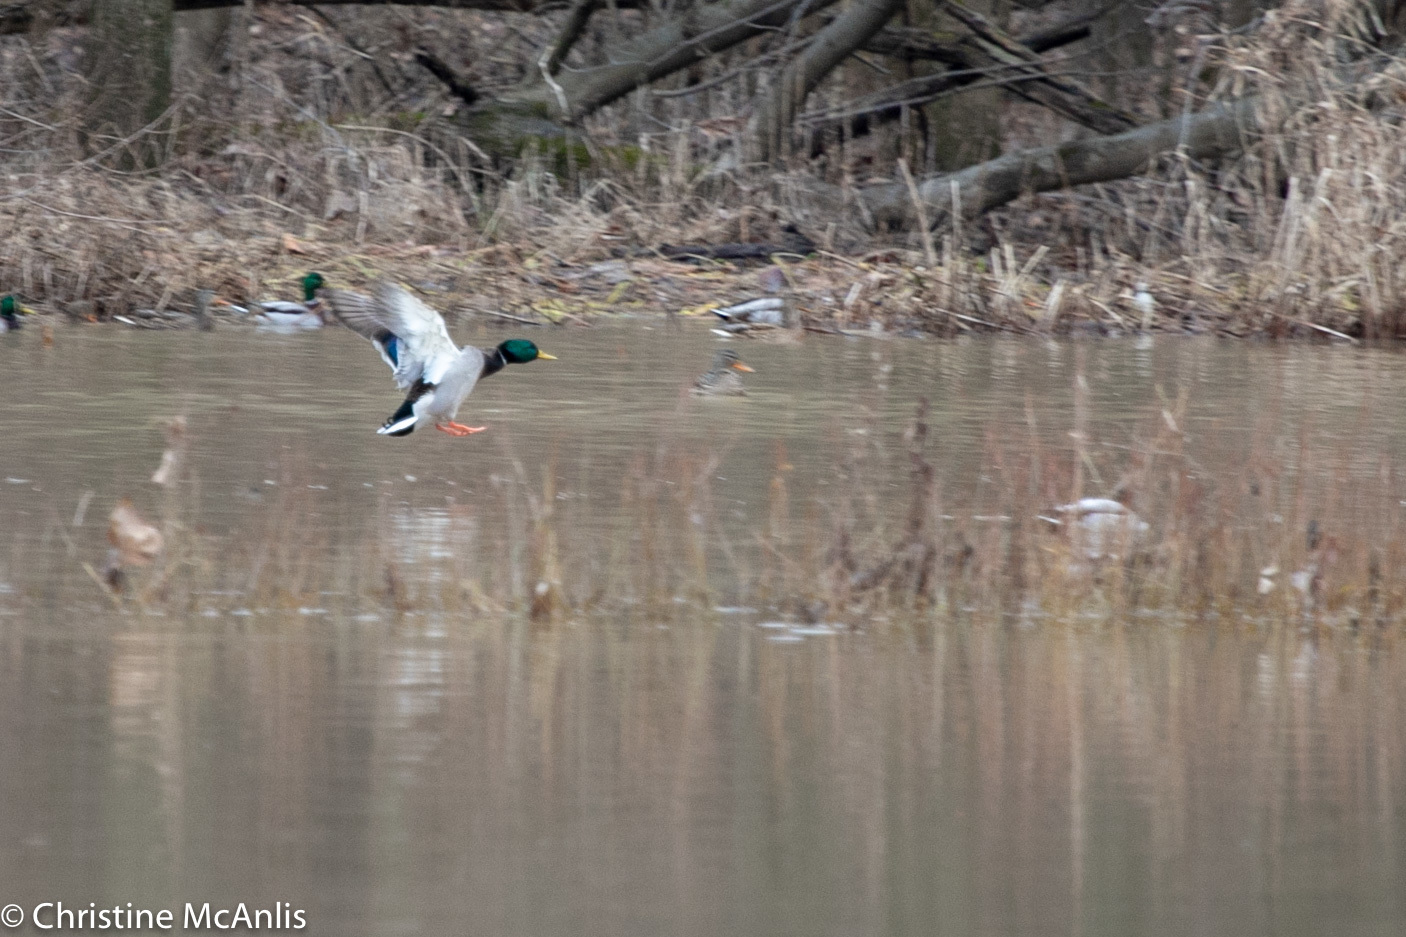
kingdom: Animalia
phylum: Chordata
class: Aves
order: Anseriformes
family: Anatidae
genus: Anas
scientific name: Anas platyrhynchos
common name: Mallard
